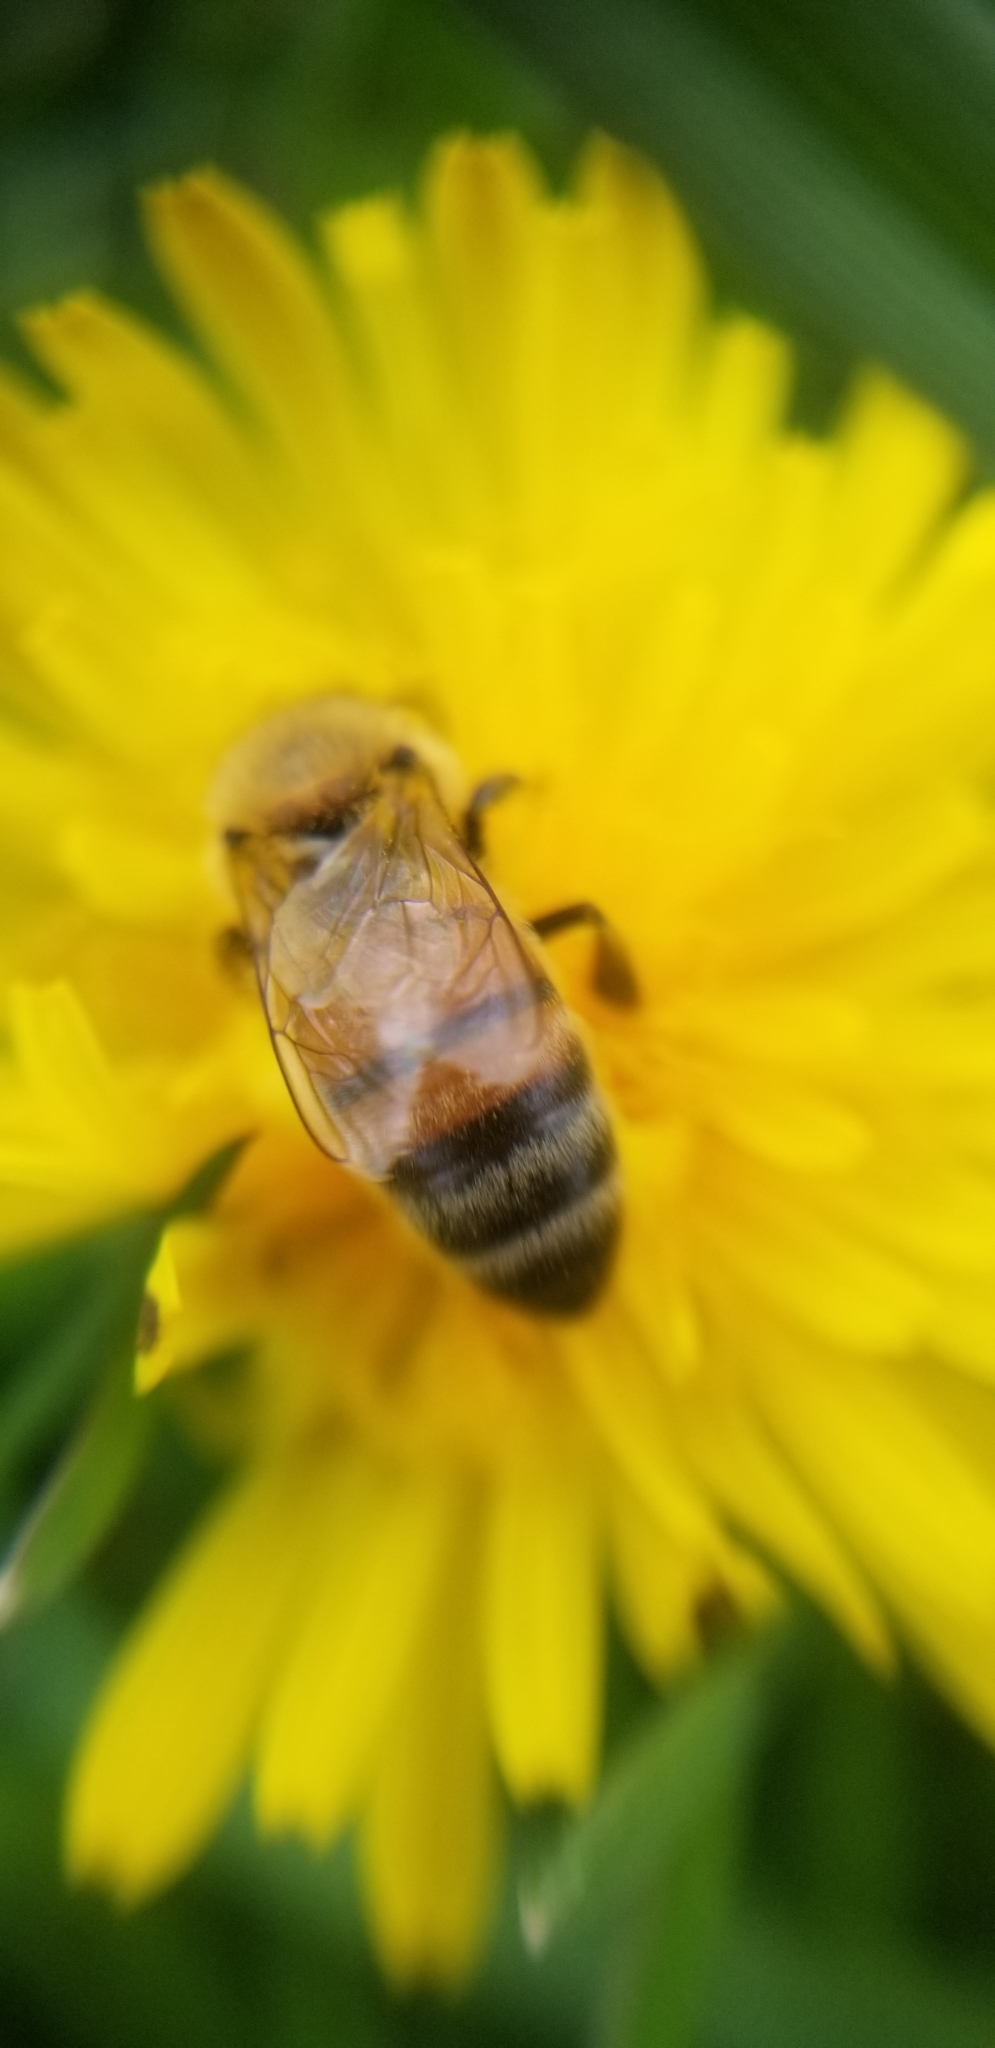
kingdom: Animalia
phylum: Arthropoda
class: Insecta
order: Hymenoptera
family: Apidae
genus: Apis
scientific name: Apis mellifera
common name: Honey bee
